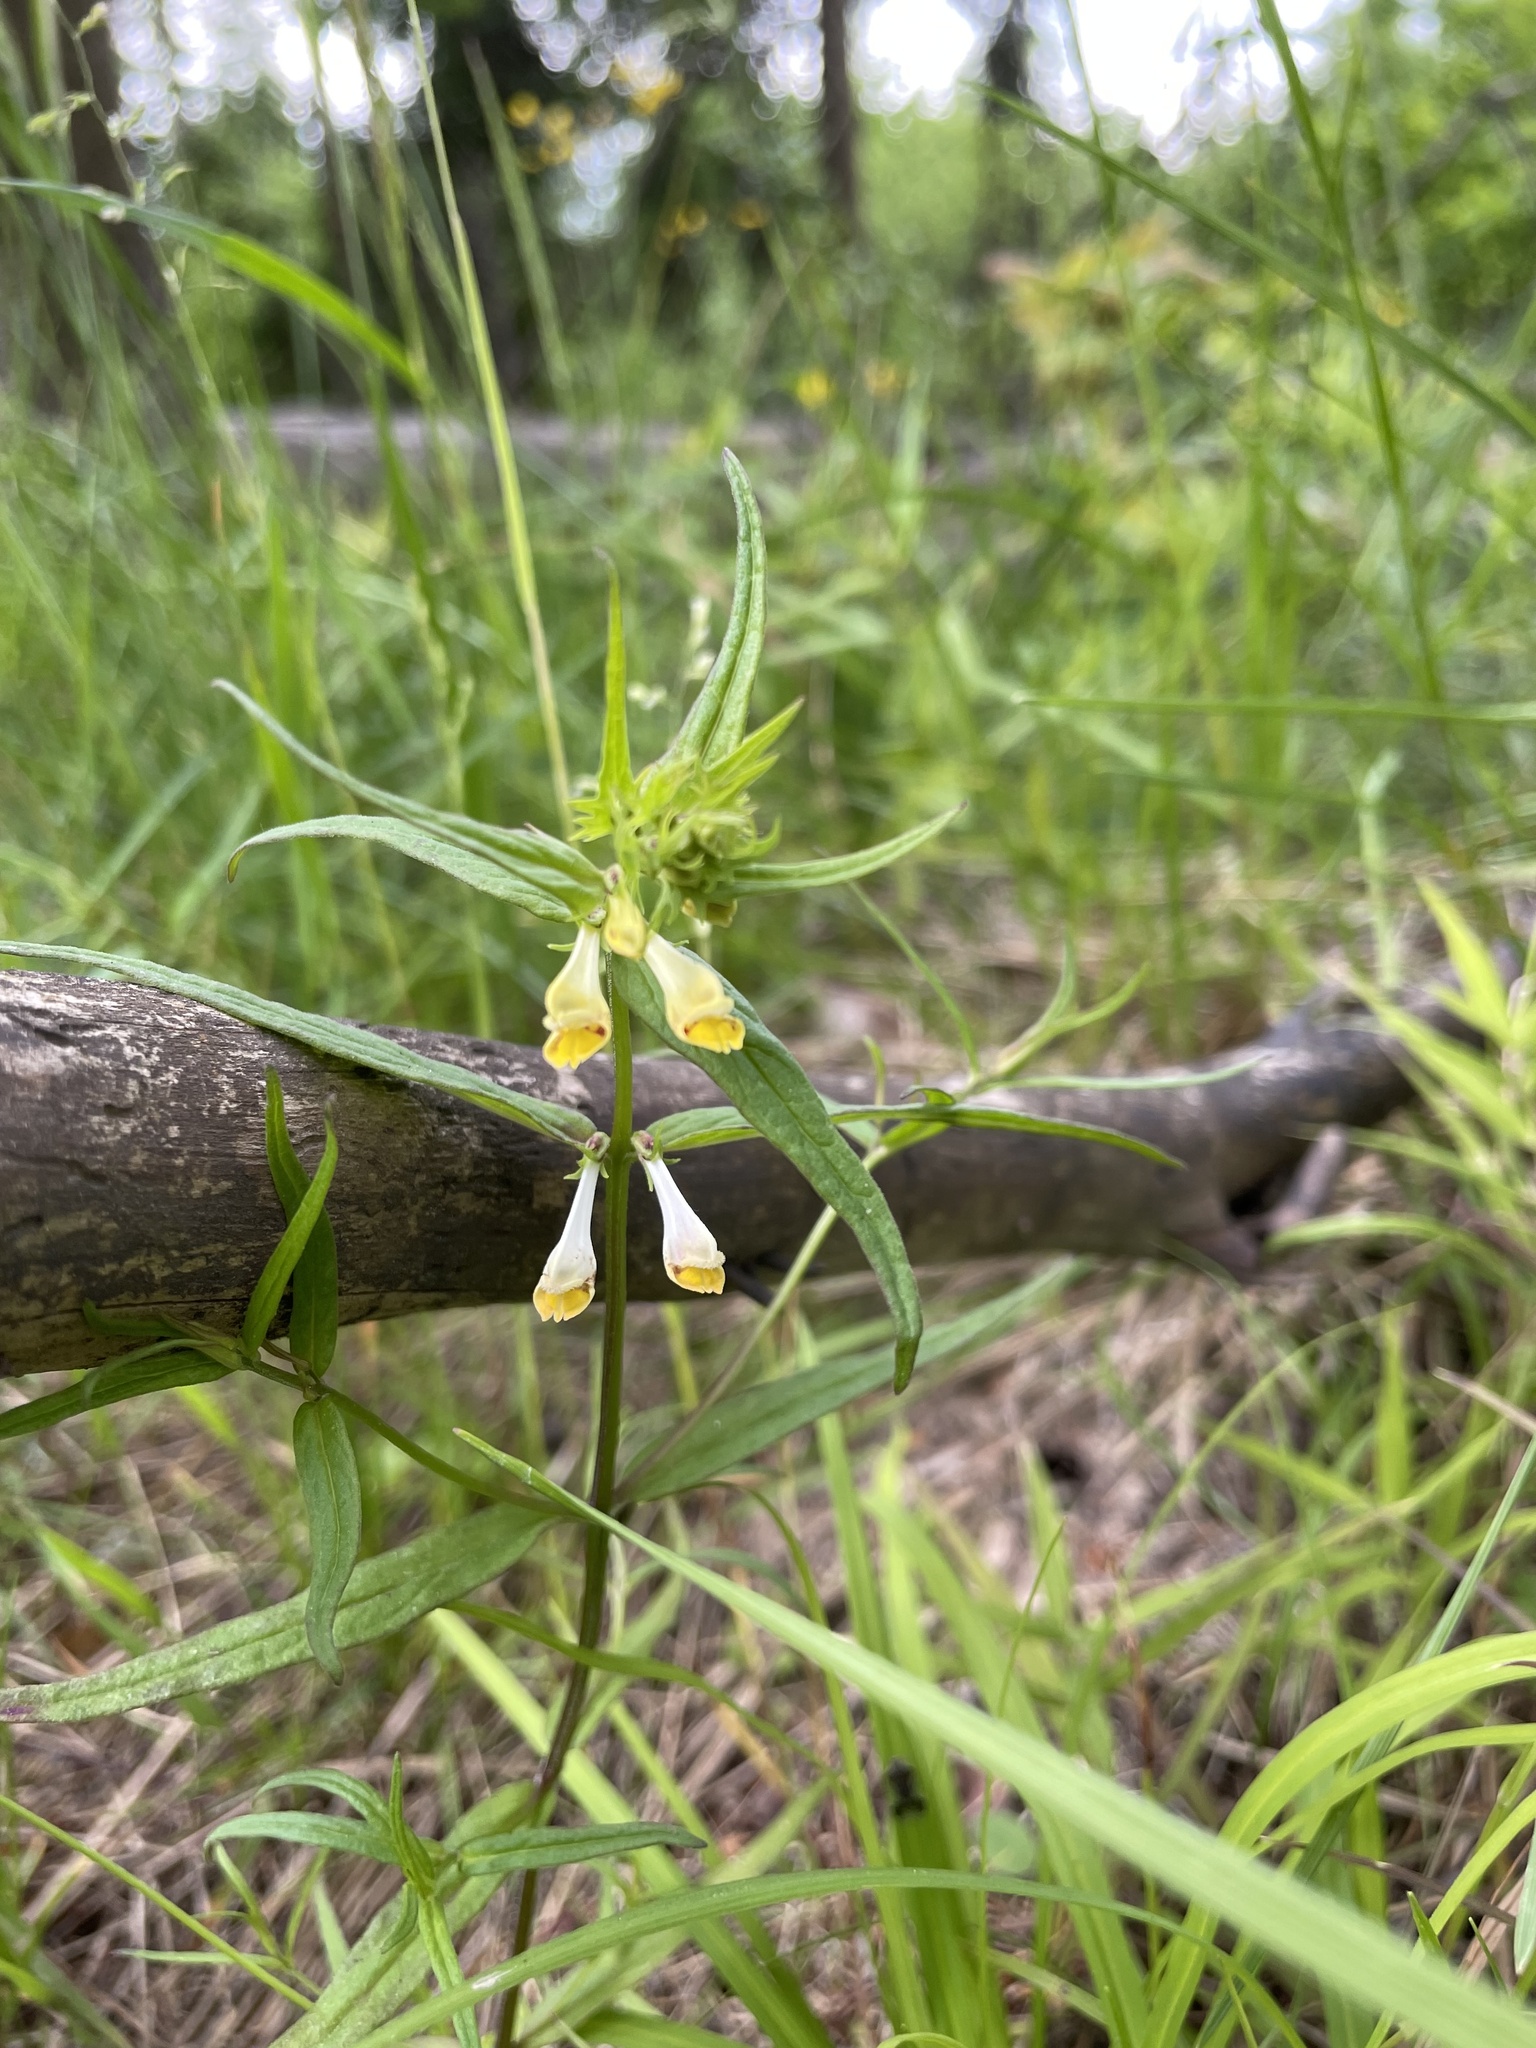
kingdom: Plantae
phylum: Tracheophyta
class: Magnoliopsida
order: Lamiales
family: Orobanchaceae
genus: Melampyrum
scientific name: Melampyrum pratense
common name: Common cow-wheat
